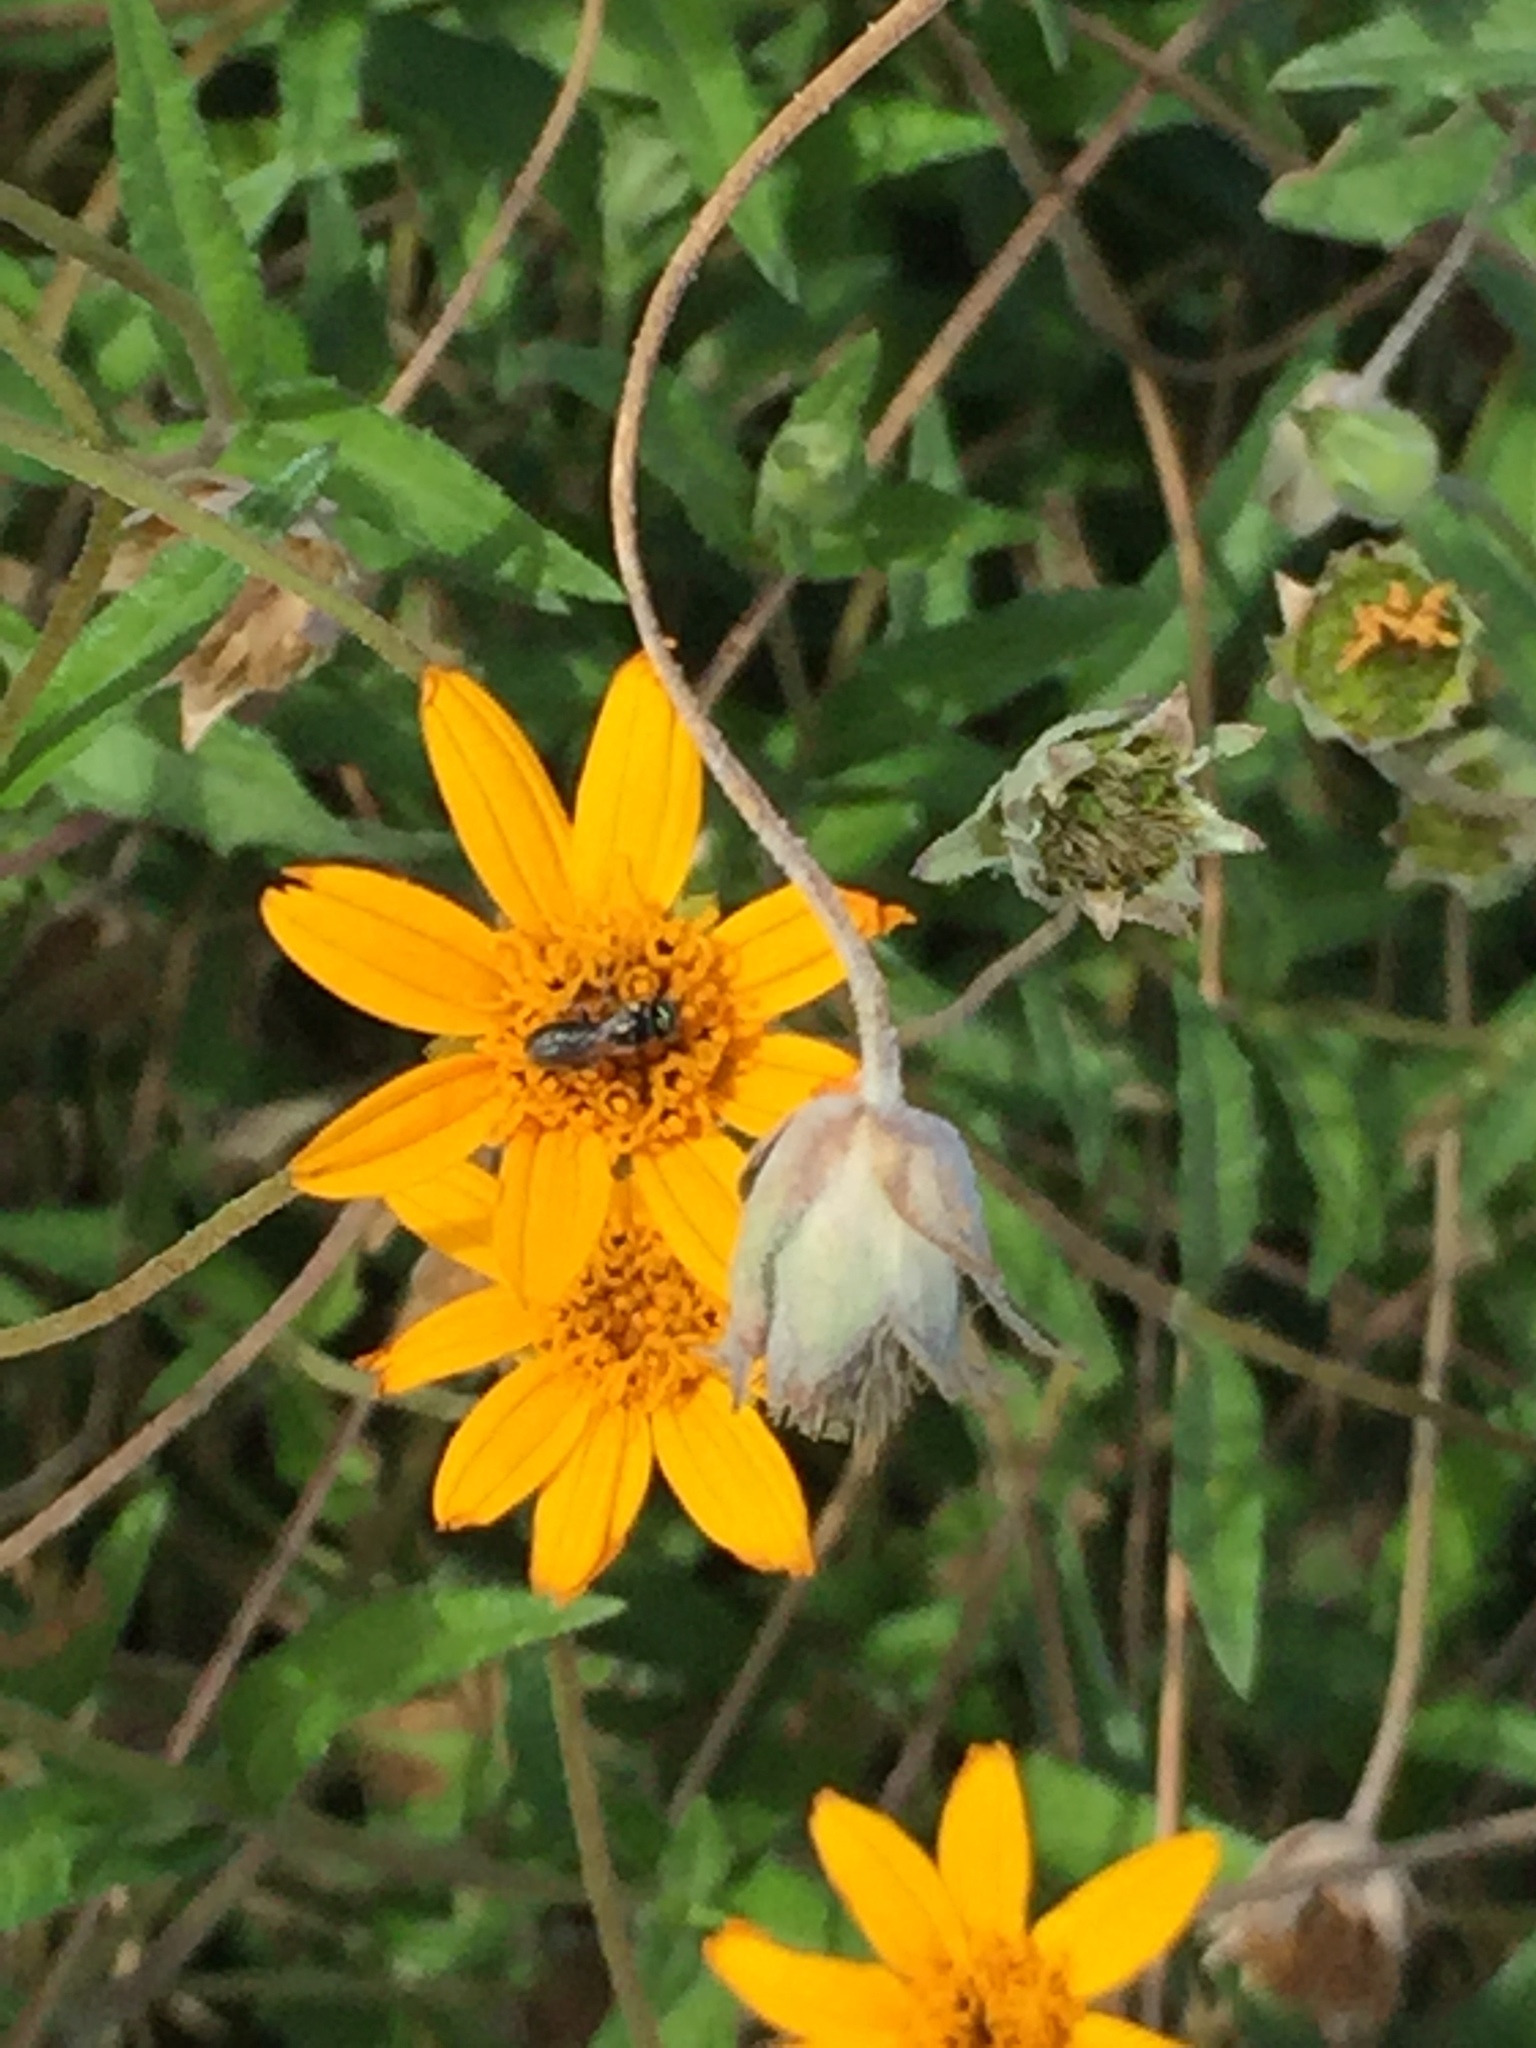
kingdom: Animalia
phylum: Arthropoda
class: Insecta
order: Hymenoptera
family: Apidae
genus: Ceratina
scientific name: Ceratina
